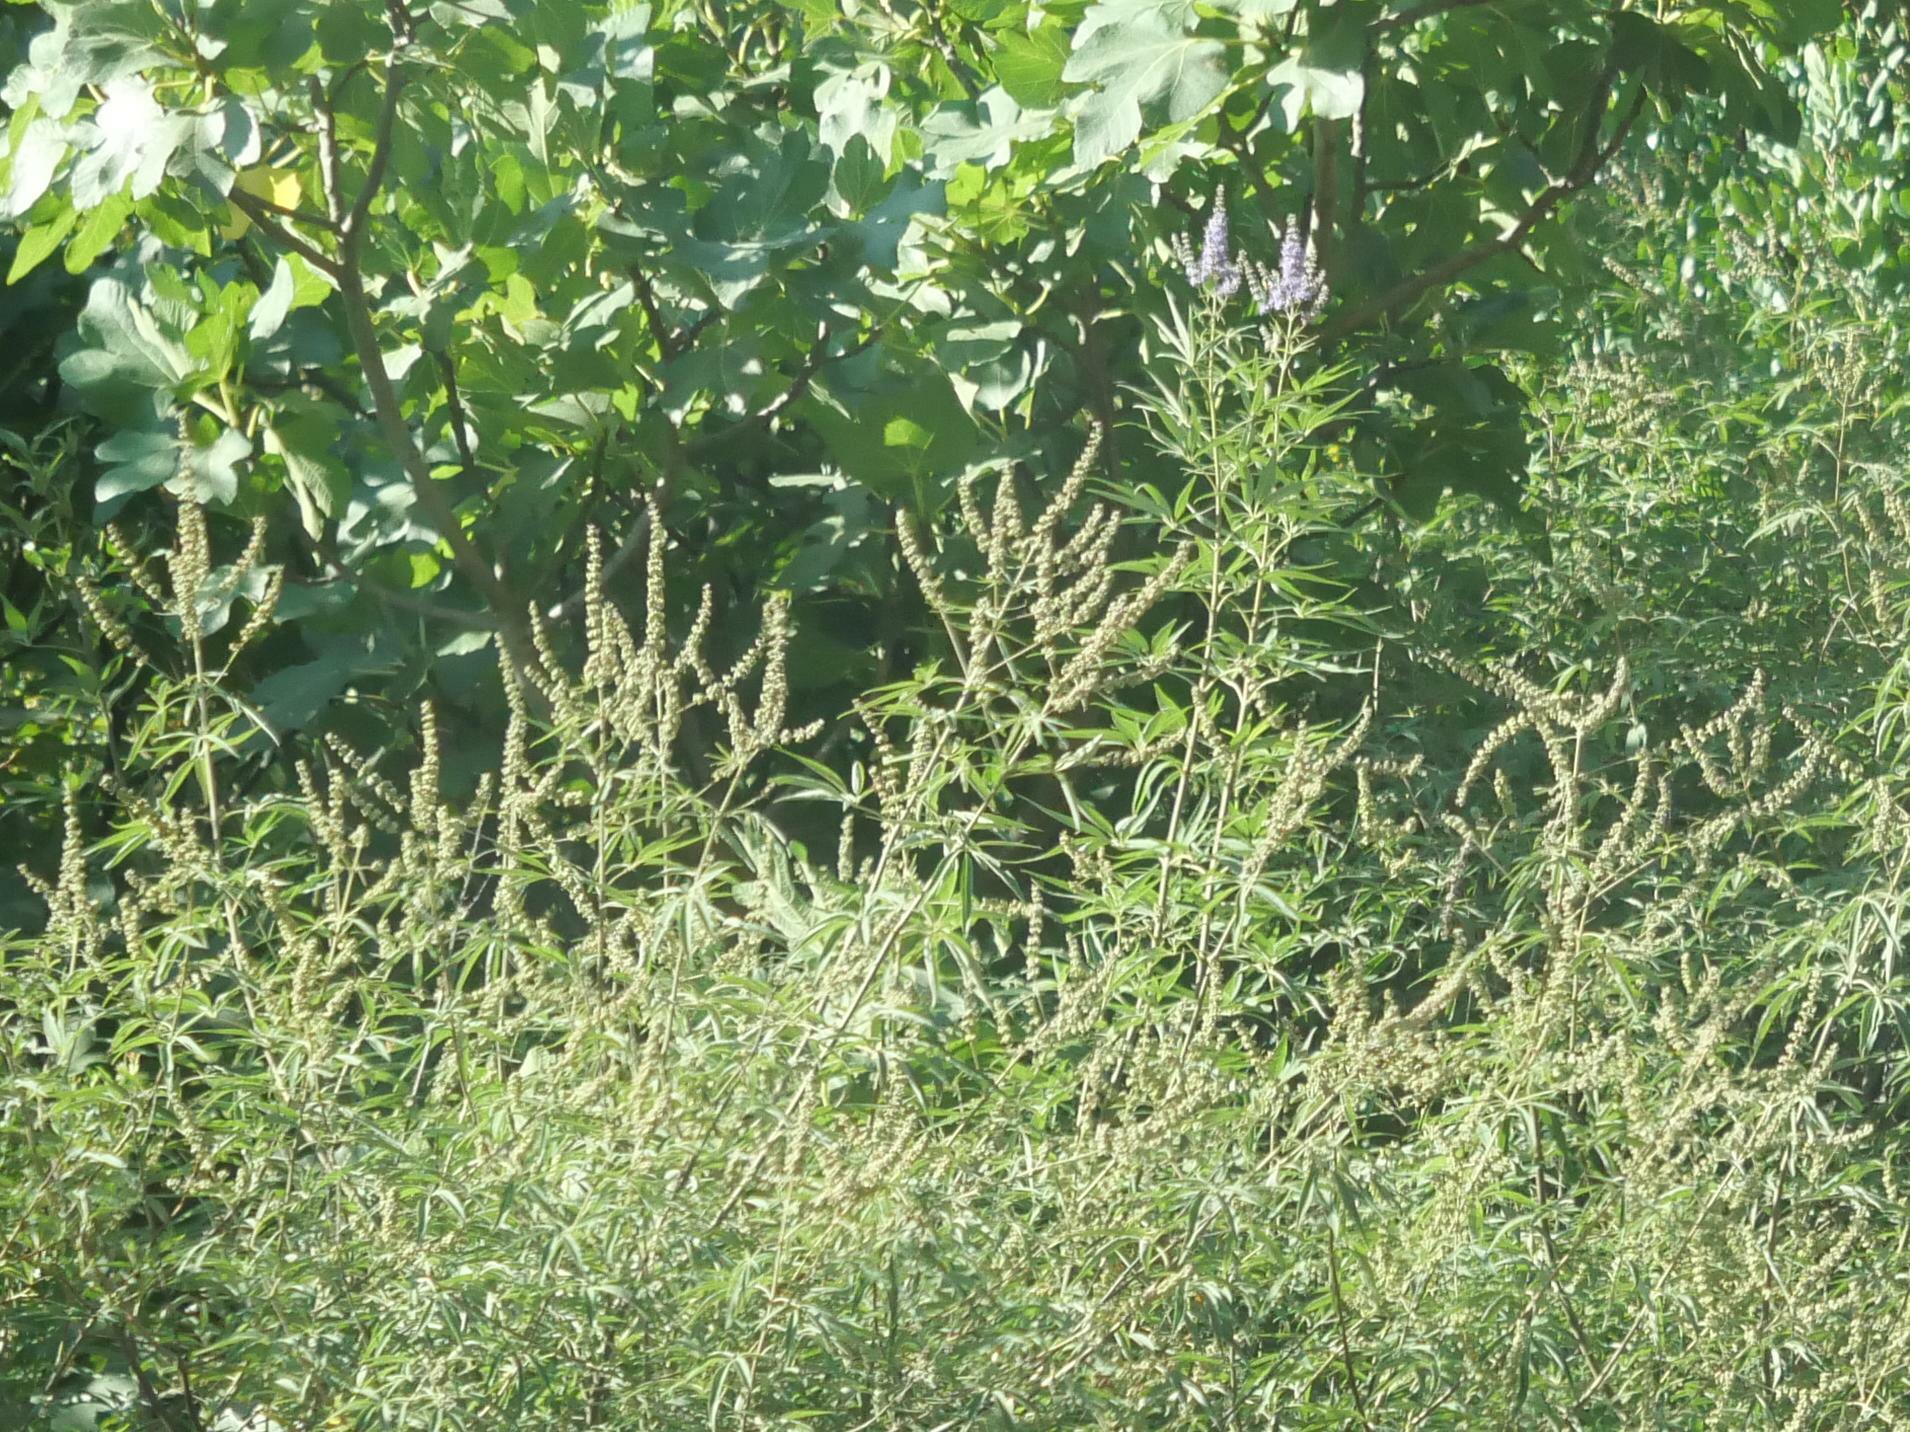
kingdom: Plantae
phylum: Tracheophyta
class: Magnoliopsida
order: Lamiales
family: Lamiaceae
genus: Vitex
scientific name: Vitex agnus-castus
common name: Chasteberry
